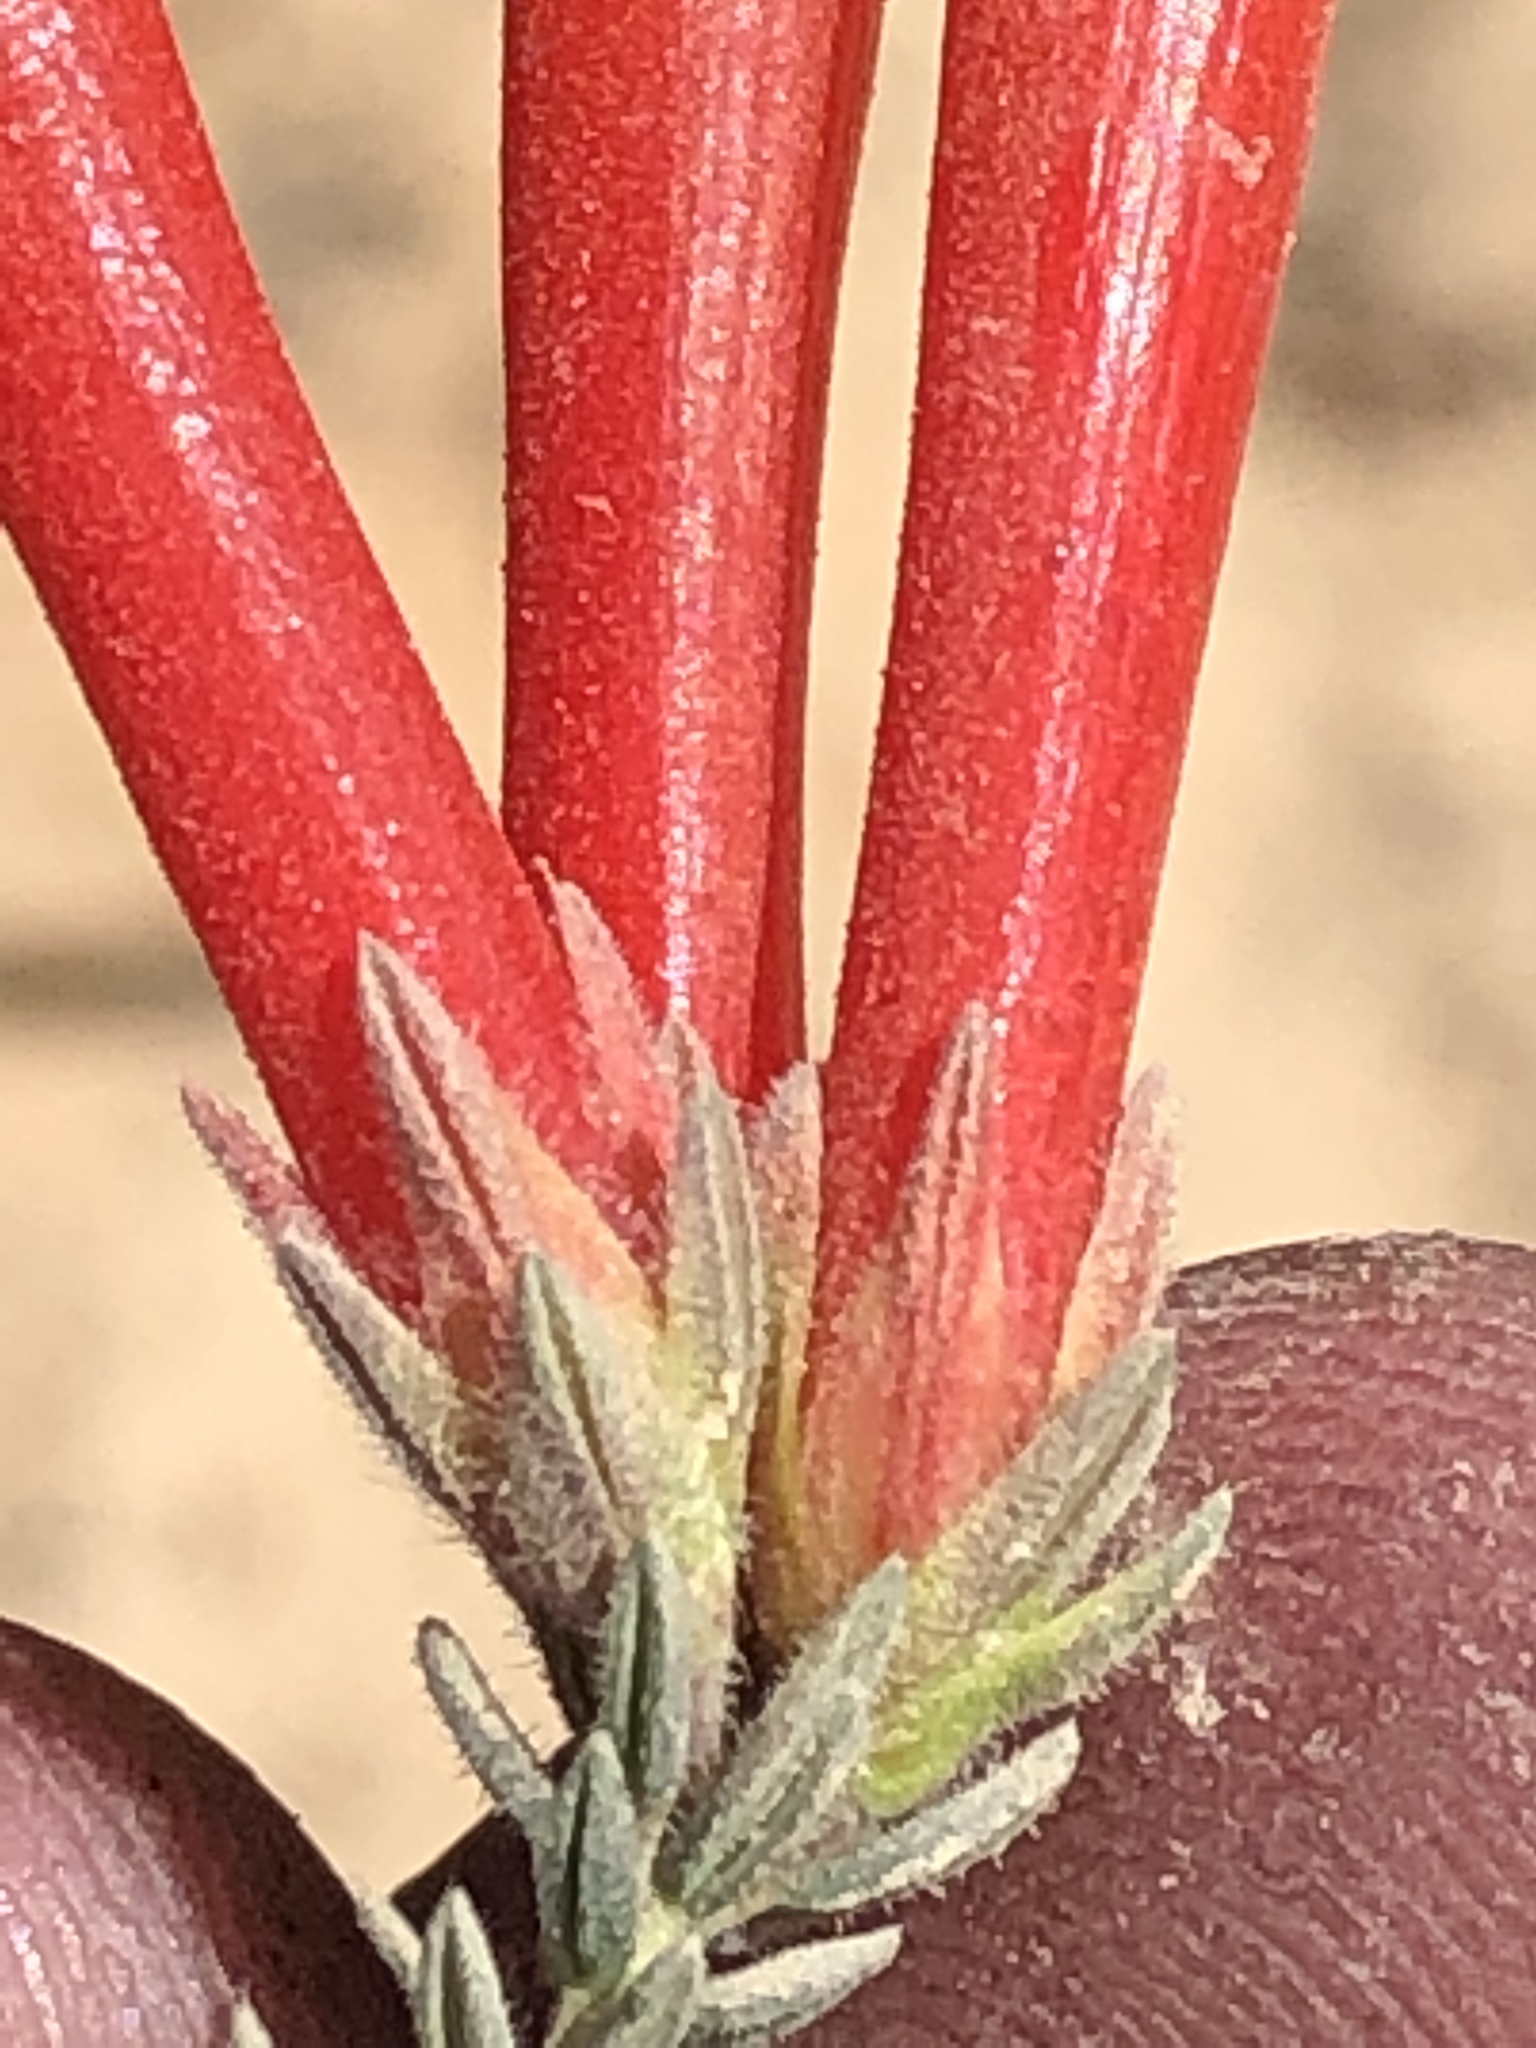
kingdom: Plantae
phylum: Tracheophyta
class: Magnoliopsida
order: Ericales
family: Ericaceae
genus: Erica
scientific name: Erica discolor
